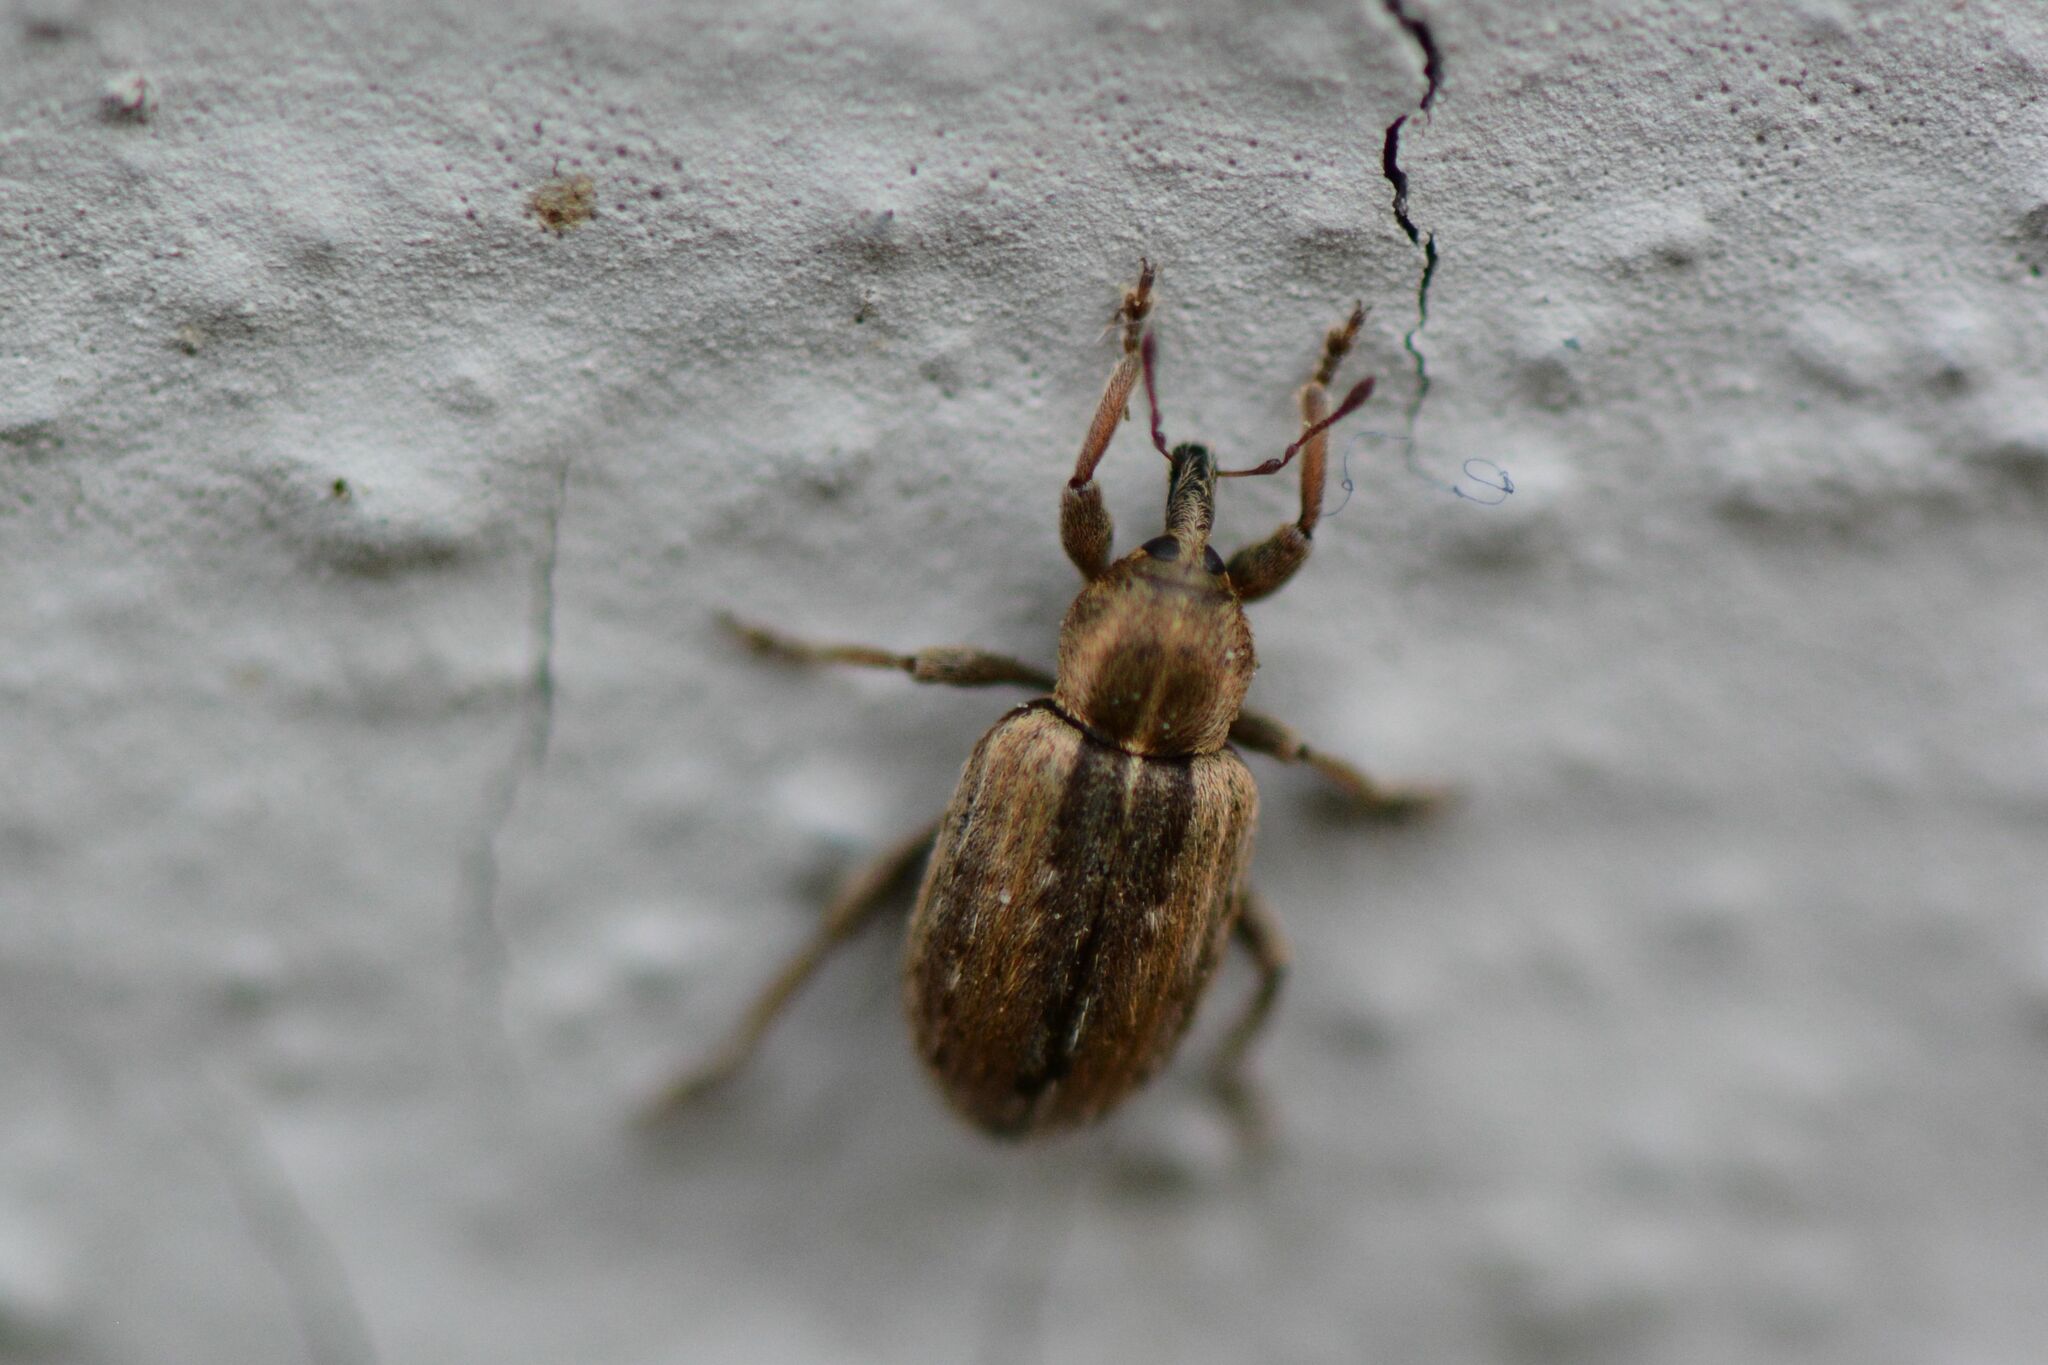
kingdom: Animalia
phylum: Arthropoda
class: Insecta
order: Coleoptera
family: Curculionidae
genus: Hypera
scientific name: Hypera postica
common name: Weevil
